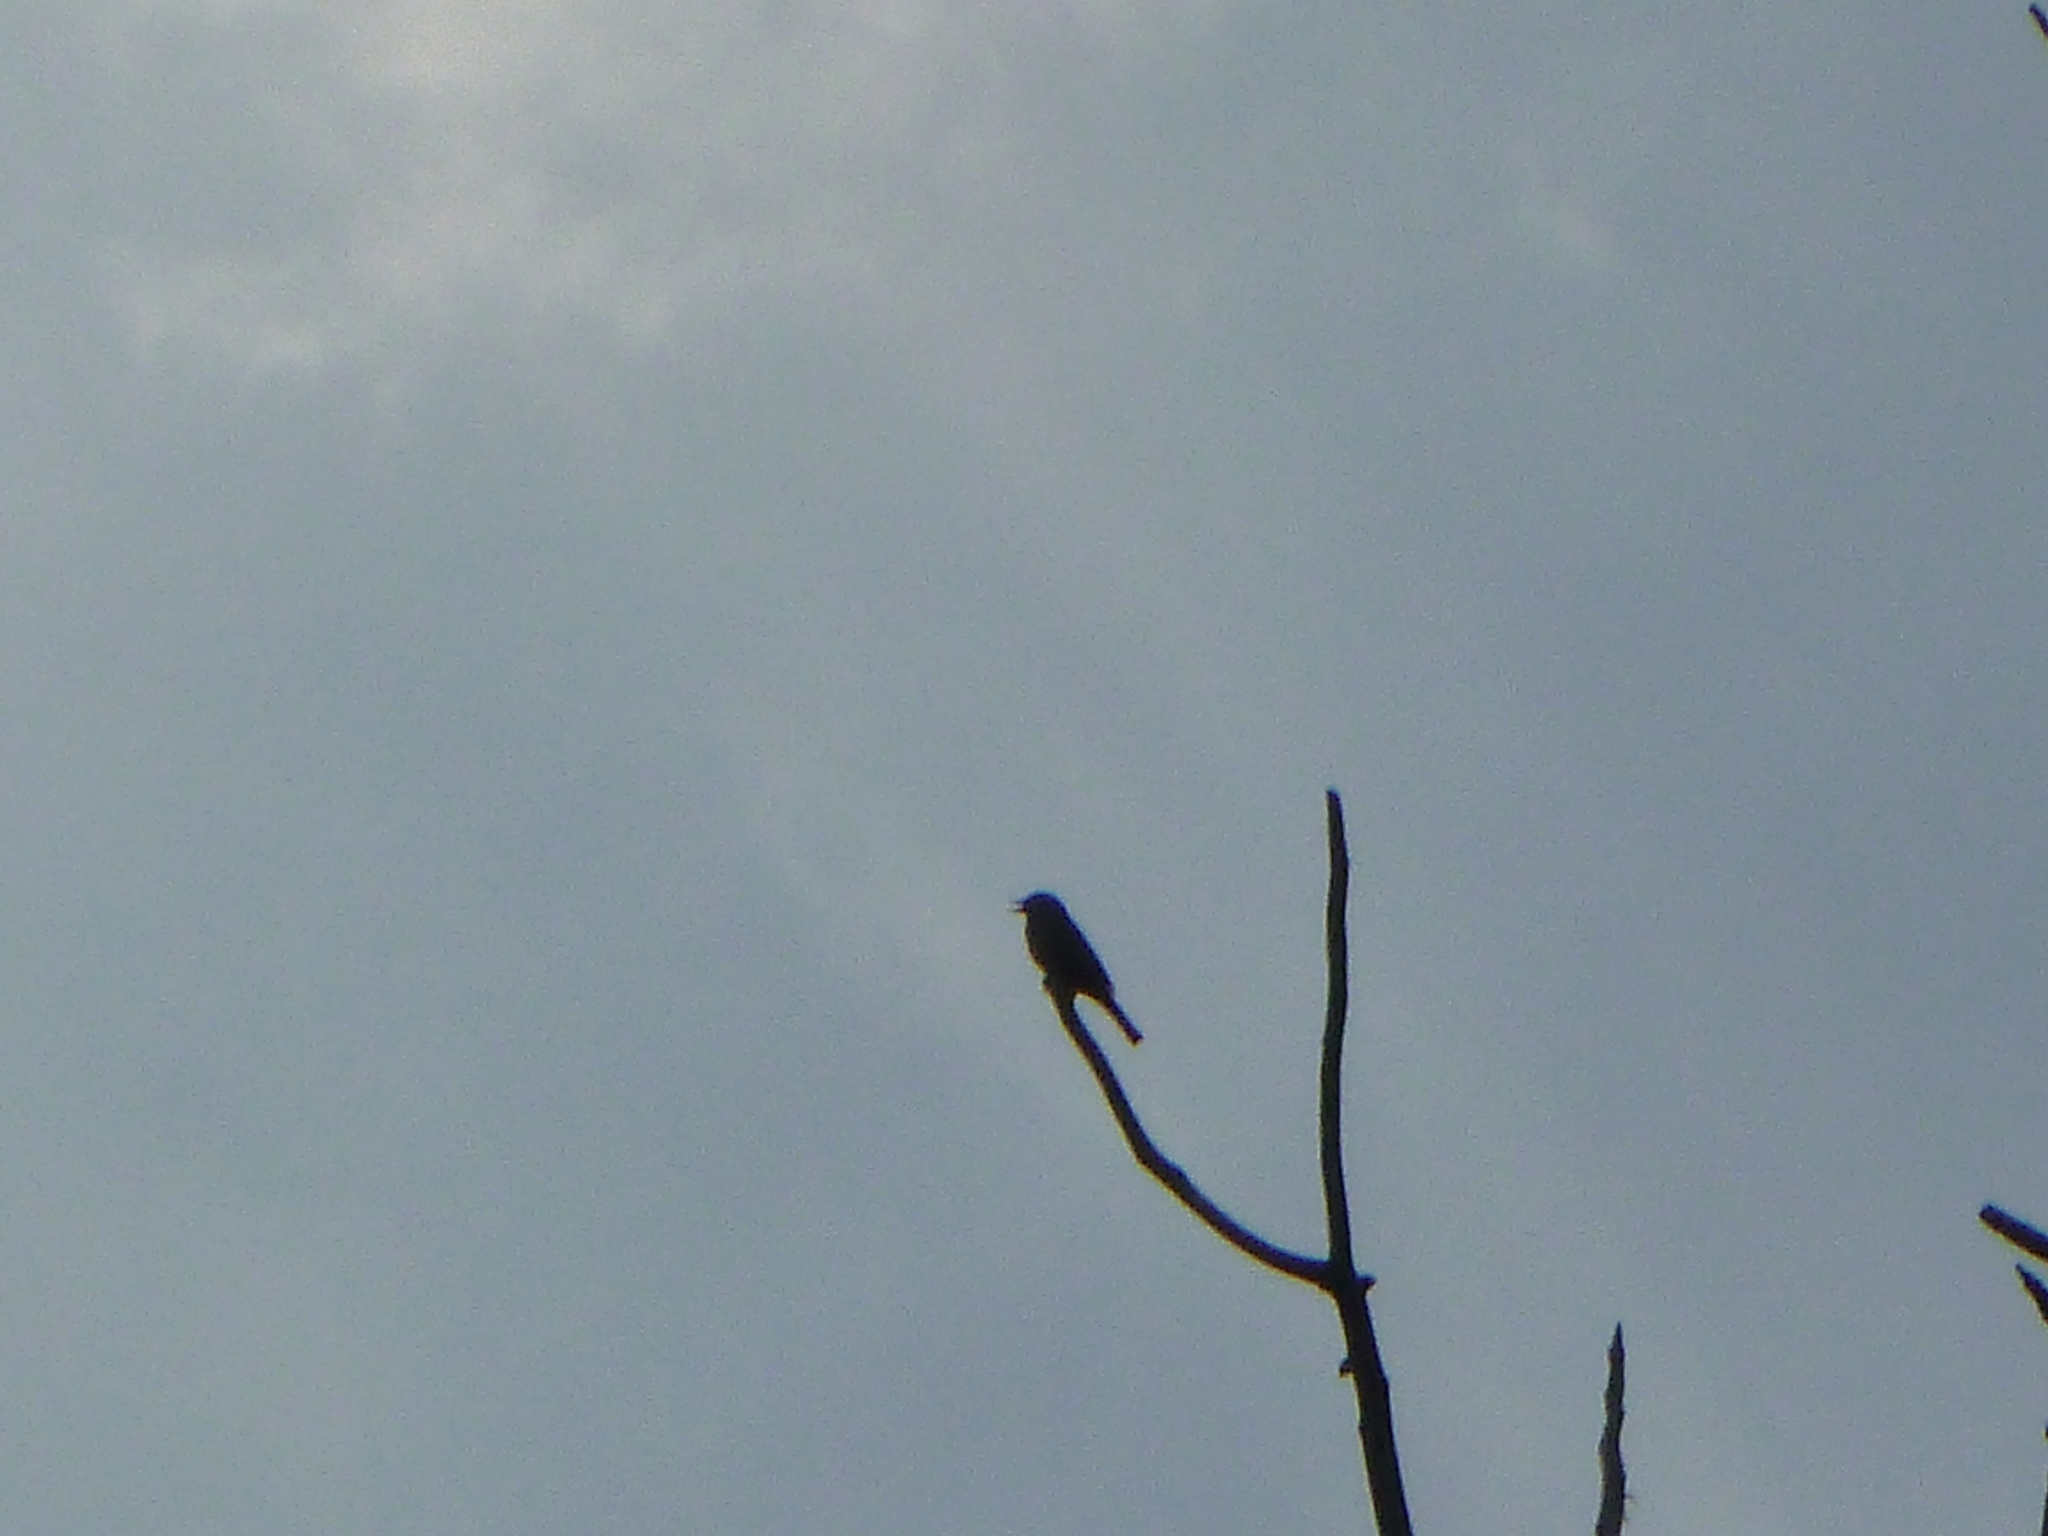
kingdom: Animalia
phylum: Chordata
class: Aves
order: Passeriformes
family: Prunellidae
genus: Prunella
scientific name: Prunella modularis
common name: Dunnock
